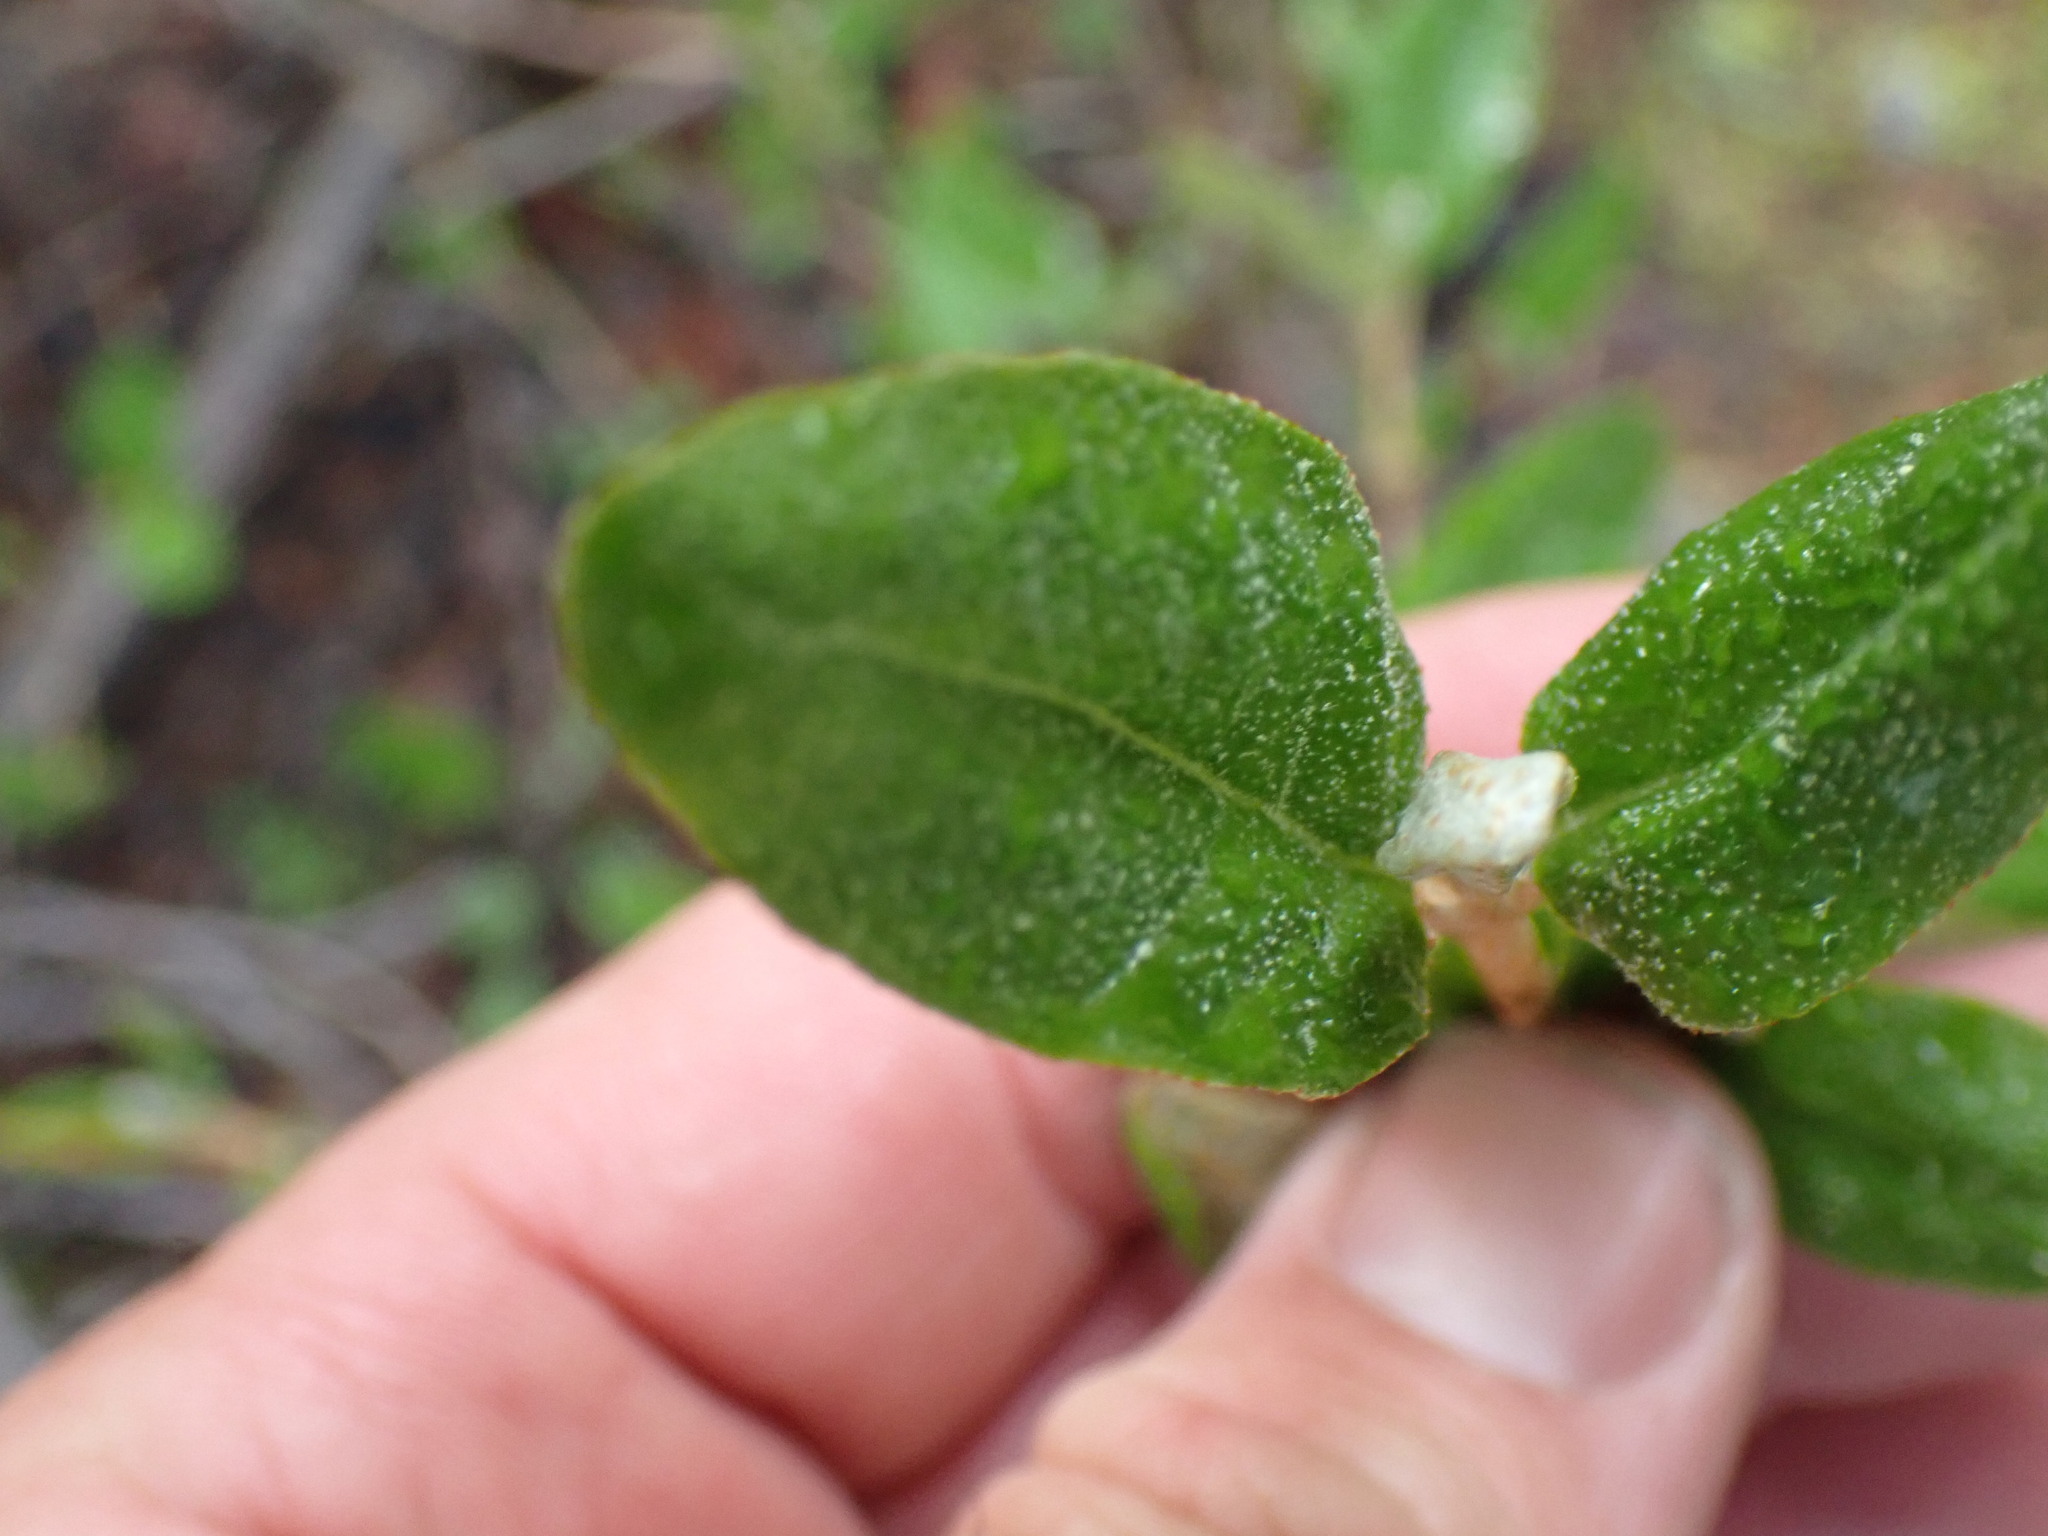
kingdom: Plantae
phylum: Tracheophyta
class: Magnoliopsida
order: Rosales
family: Elaeagnaceae
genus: Shepherdia
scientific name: Shepherdia canadensis
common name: Soapberry
